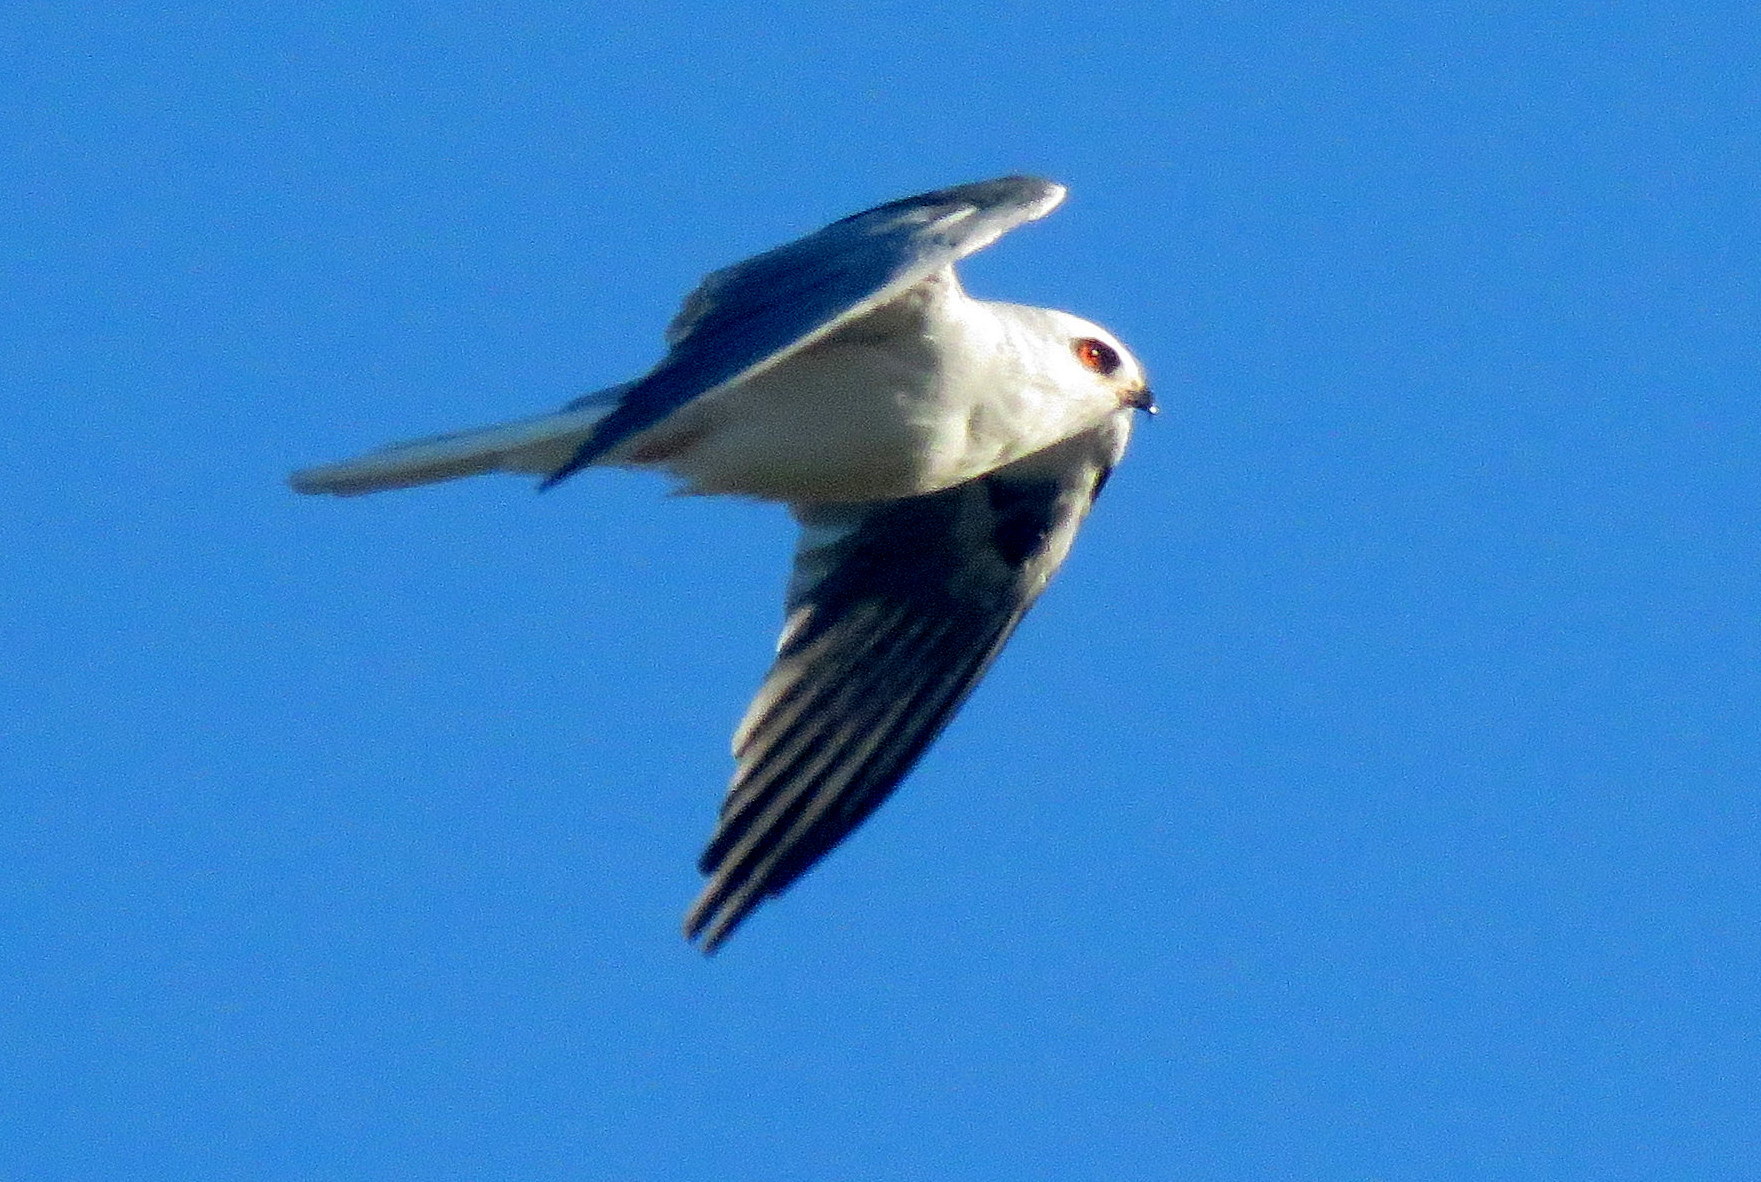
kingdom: Animalia
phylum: Chordata
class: Aves
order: Accipitriformes
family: Accipitridae
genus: Elanus
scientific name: Elanus leucurus
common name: White-tailed kite
